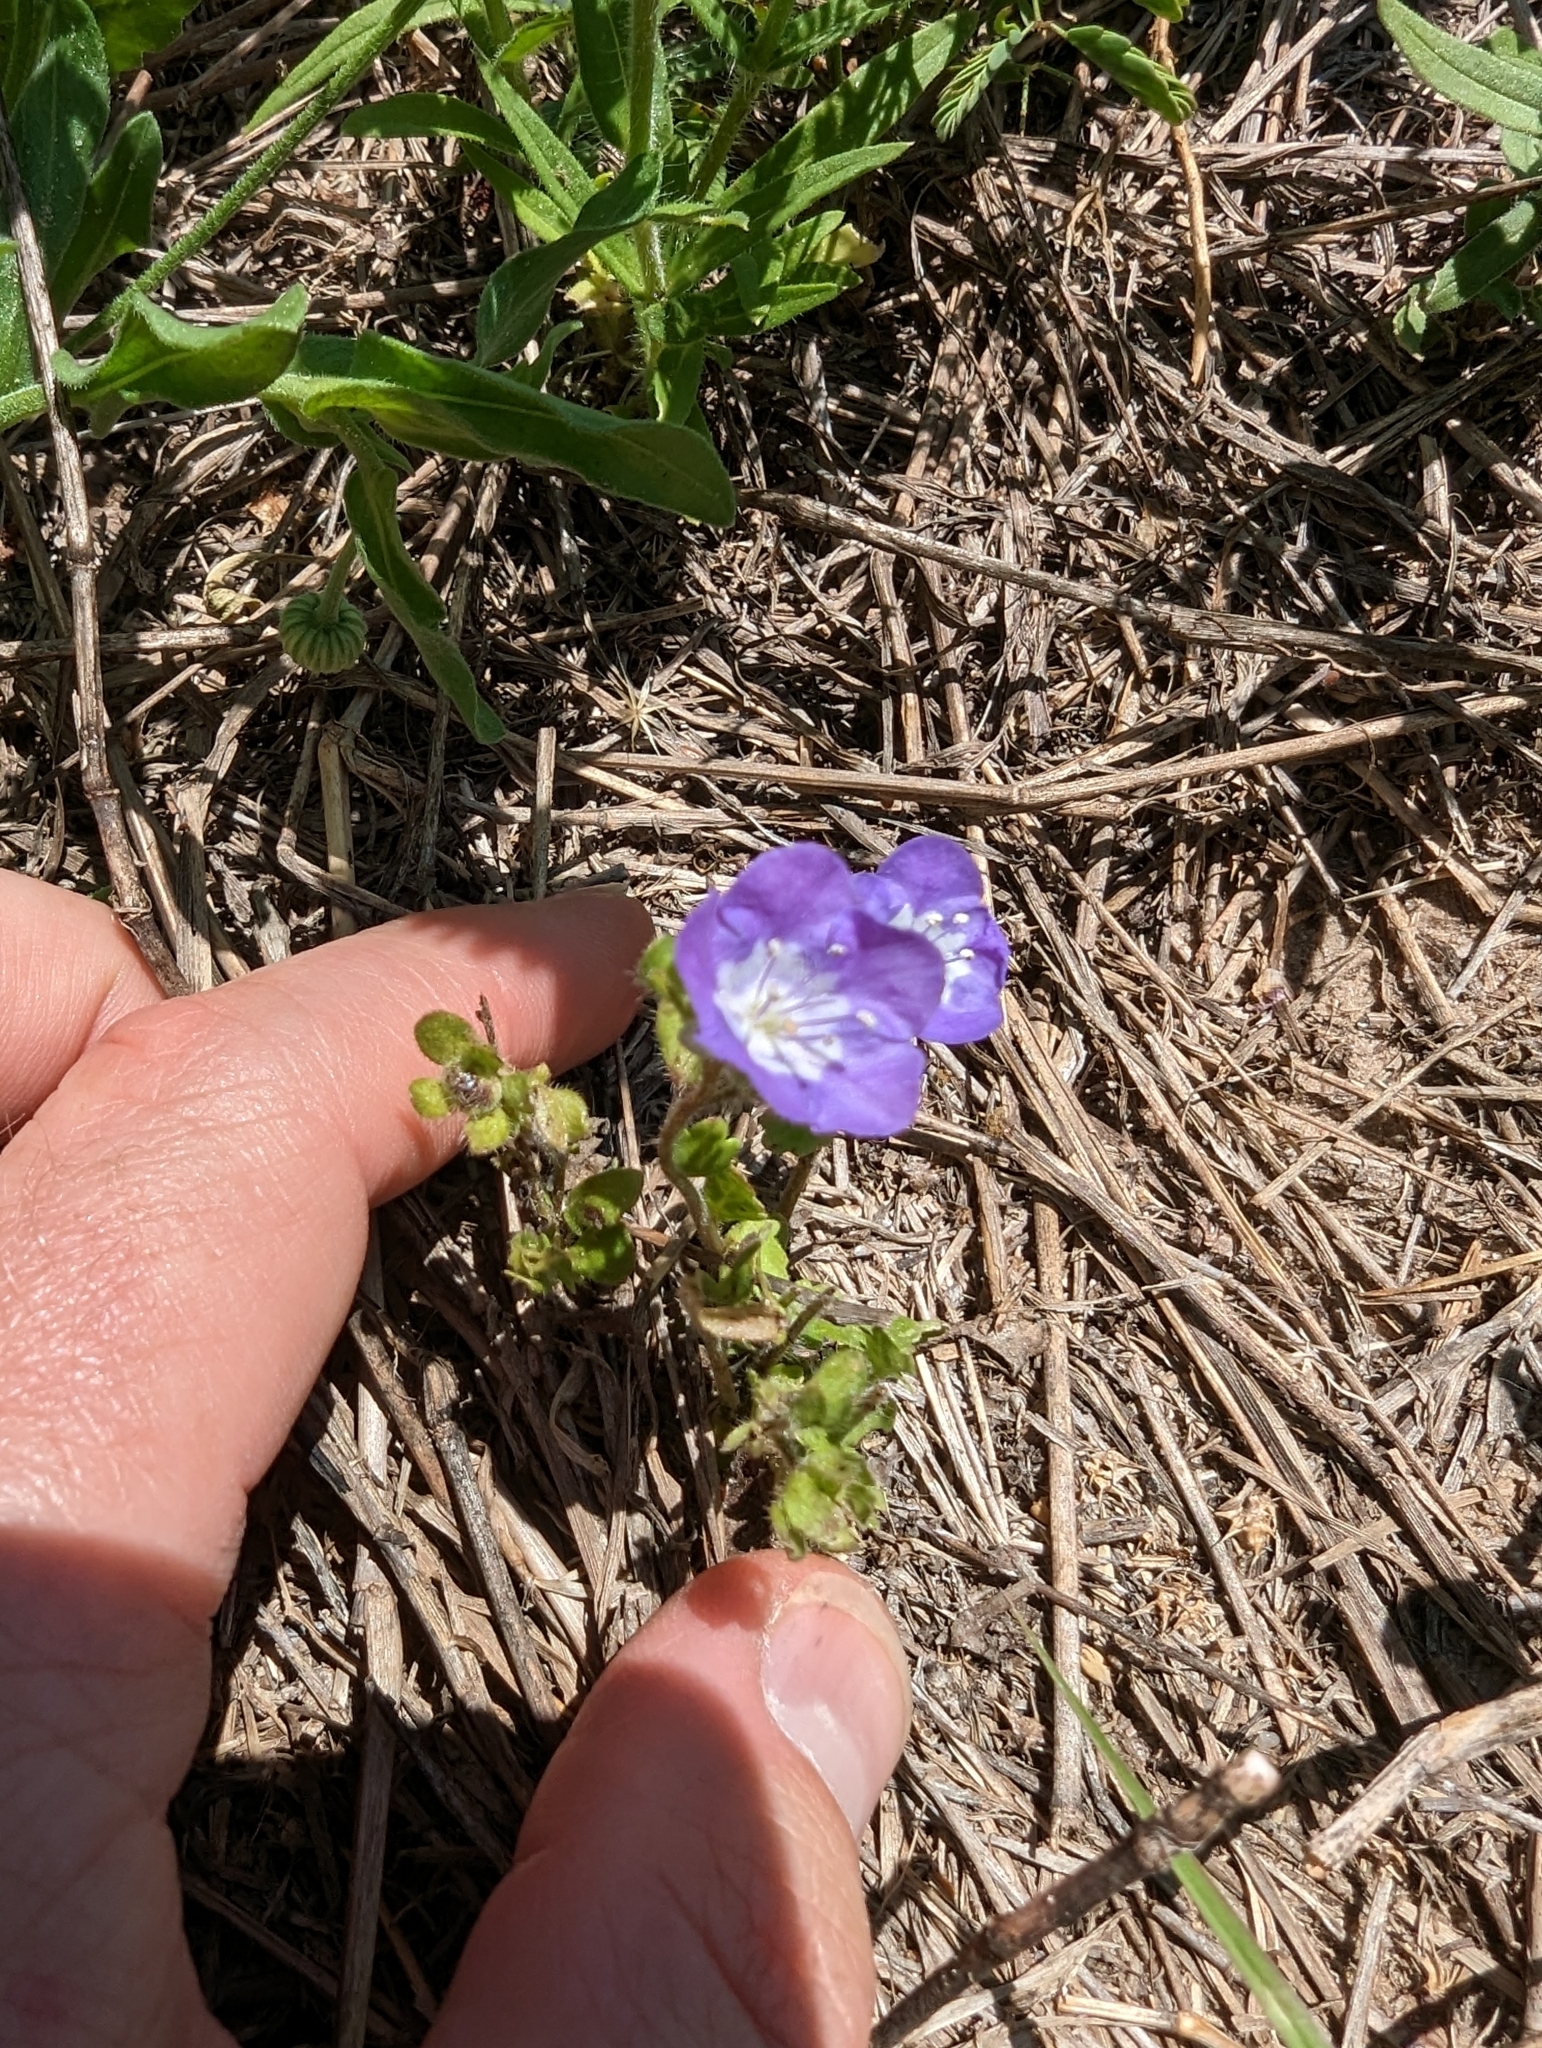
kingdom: Plantae
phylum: Tracheophyta
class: Magnoliopsida
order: Boraginales
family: Hydrophyllaceae
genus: Phacelia
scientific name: Phacelia patuliflora
